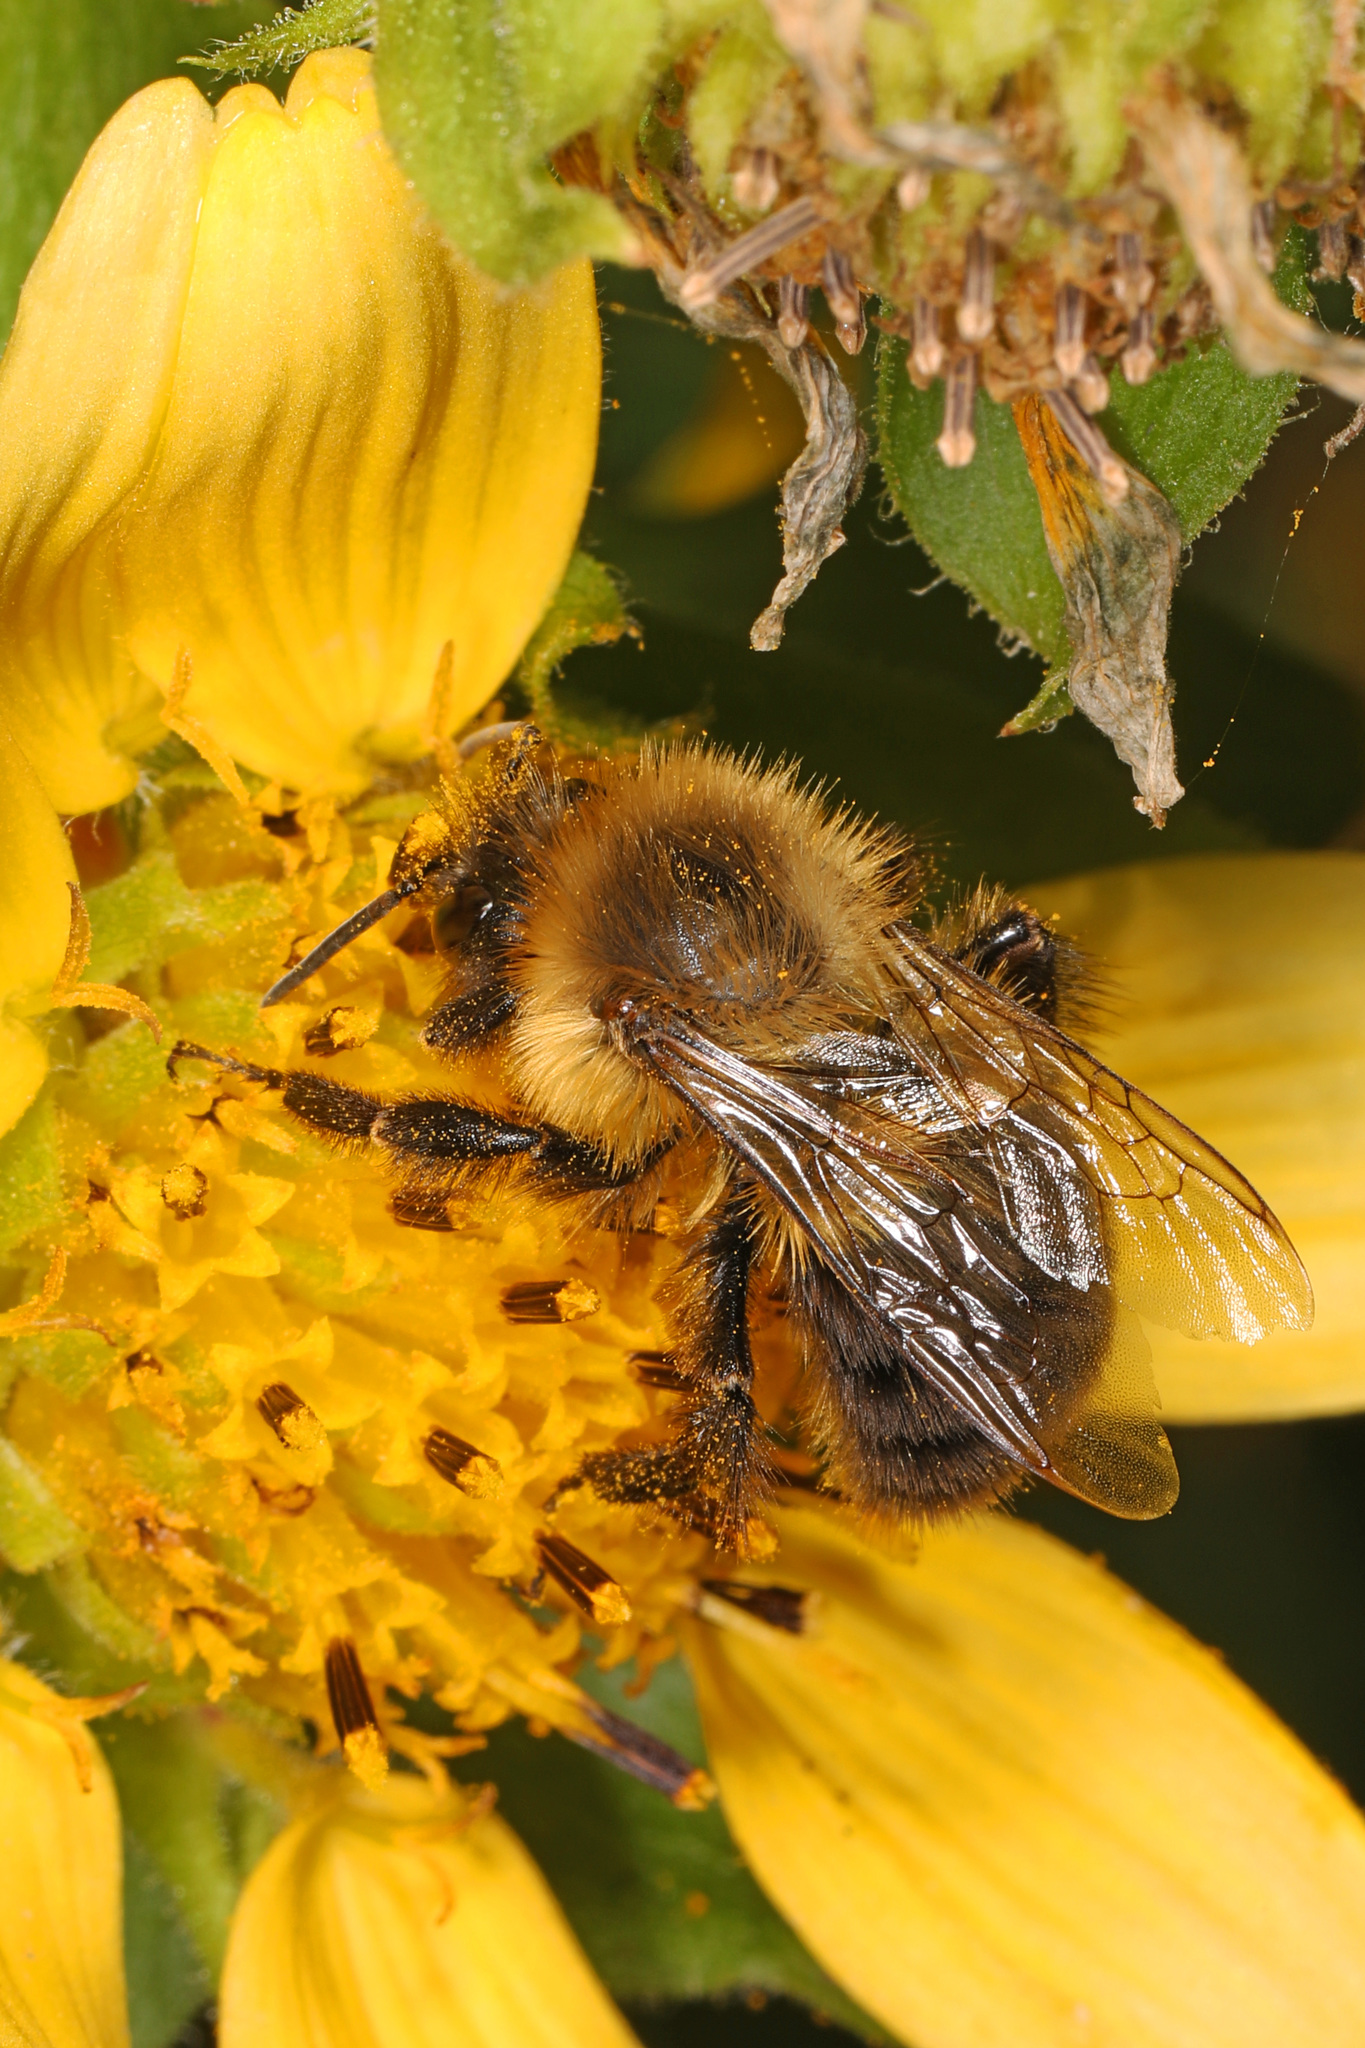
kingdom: Animalia
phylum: Arthropoda
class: Insecta
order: Hymenoptera
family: Apidae
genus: Bombus
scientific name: Bombus impatiens
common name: Common eastern bumble bee
